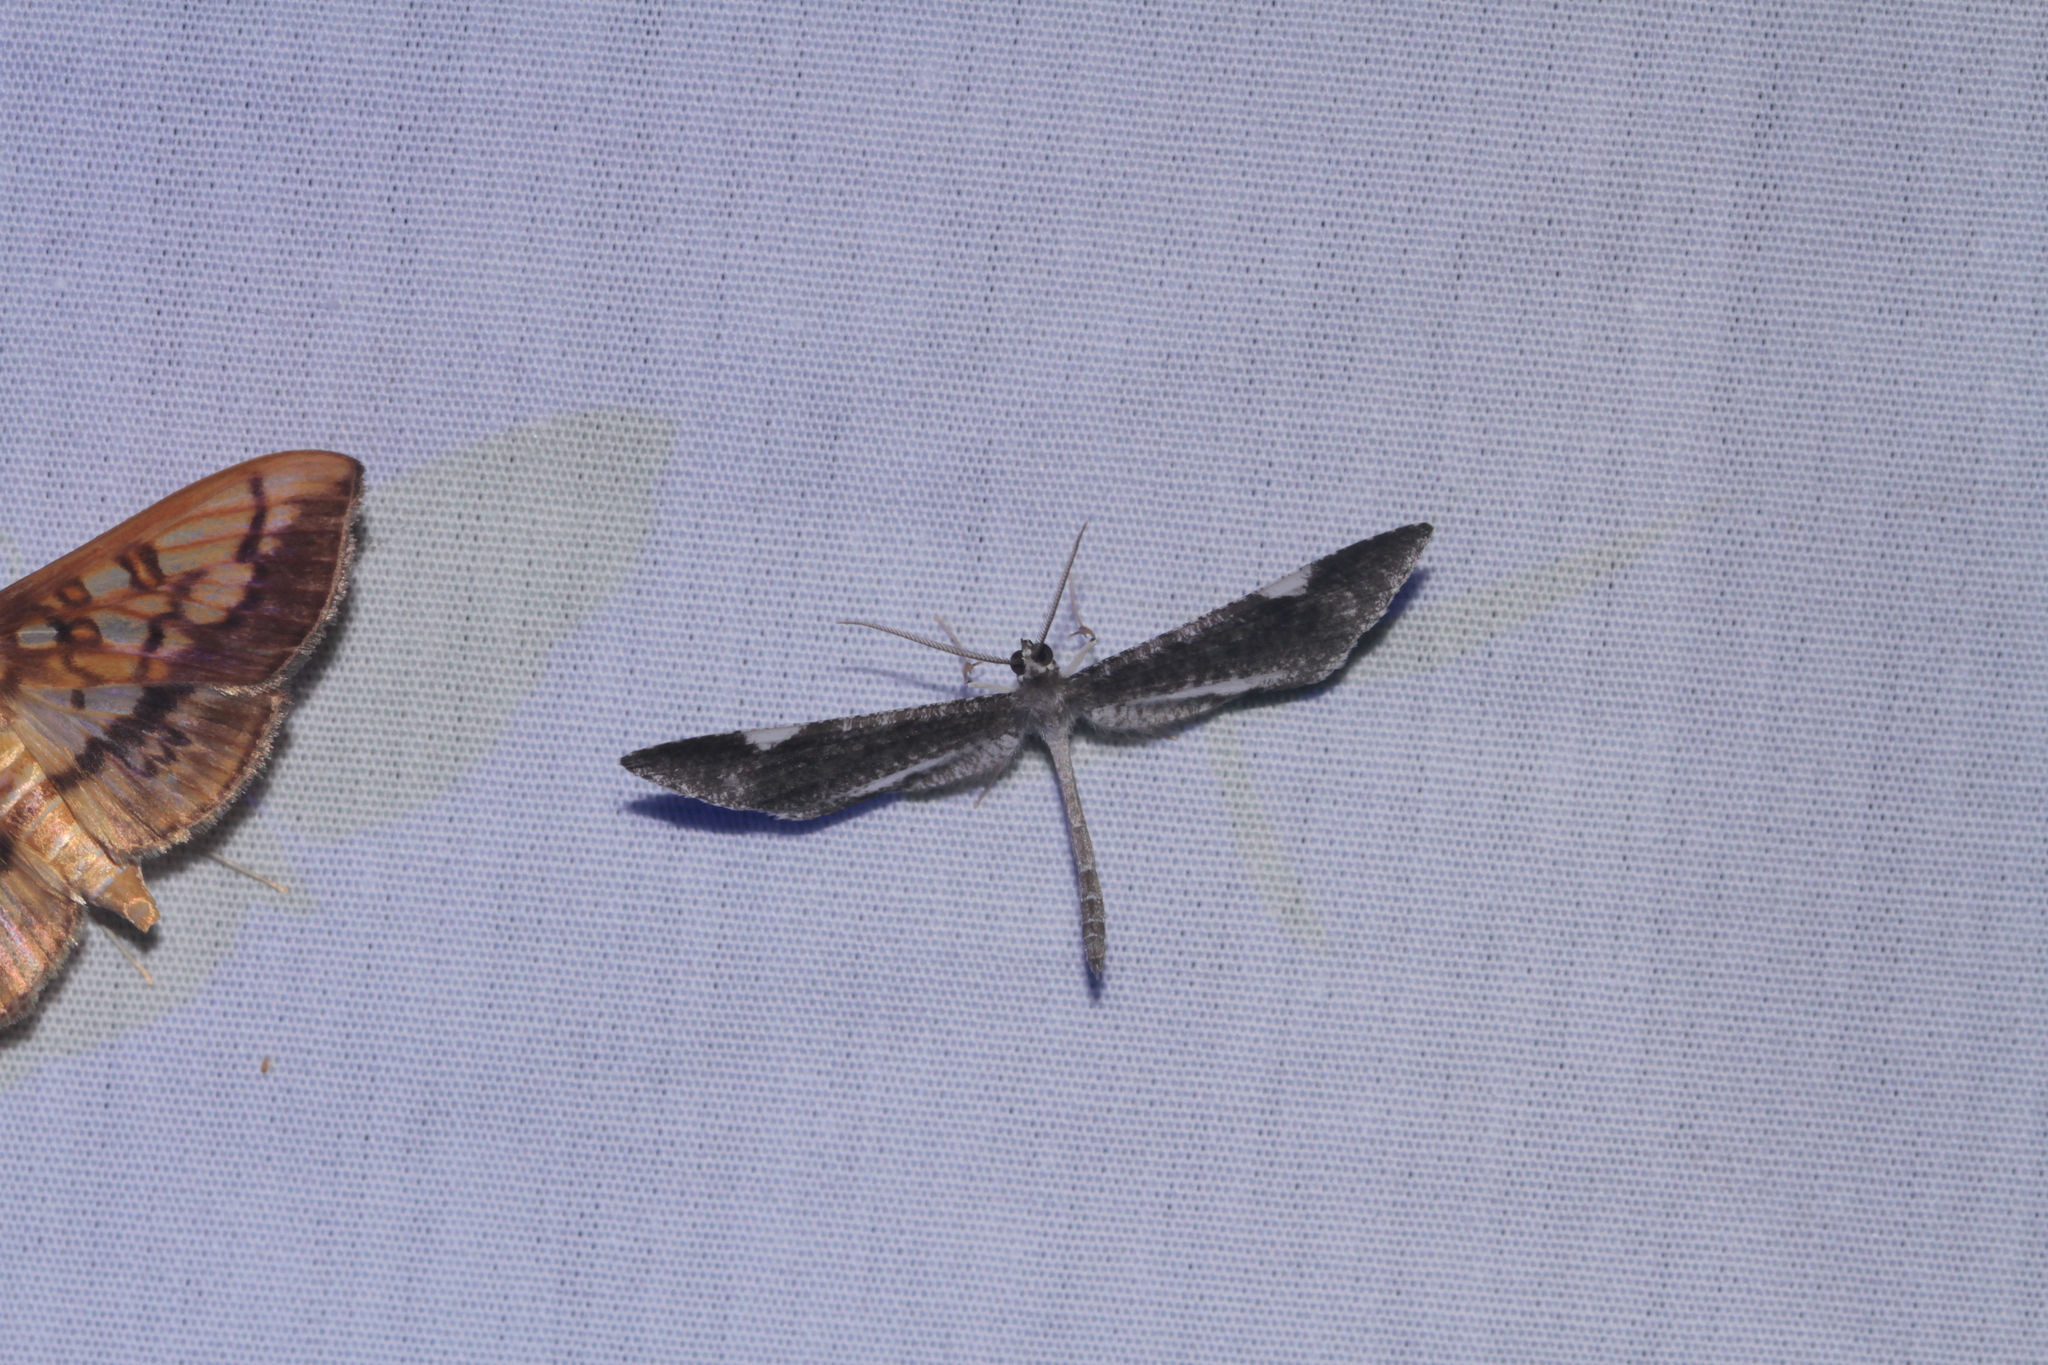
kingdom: Animalia
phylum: Arthropoda
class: Insecta
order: Lepidoptera
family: Hedylidae
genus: Macrosoma
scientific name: Macrosoma heliconiaria
